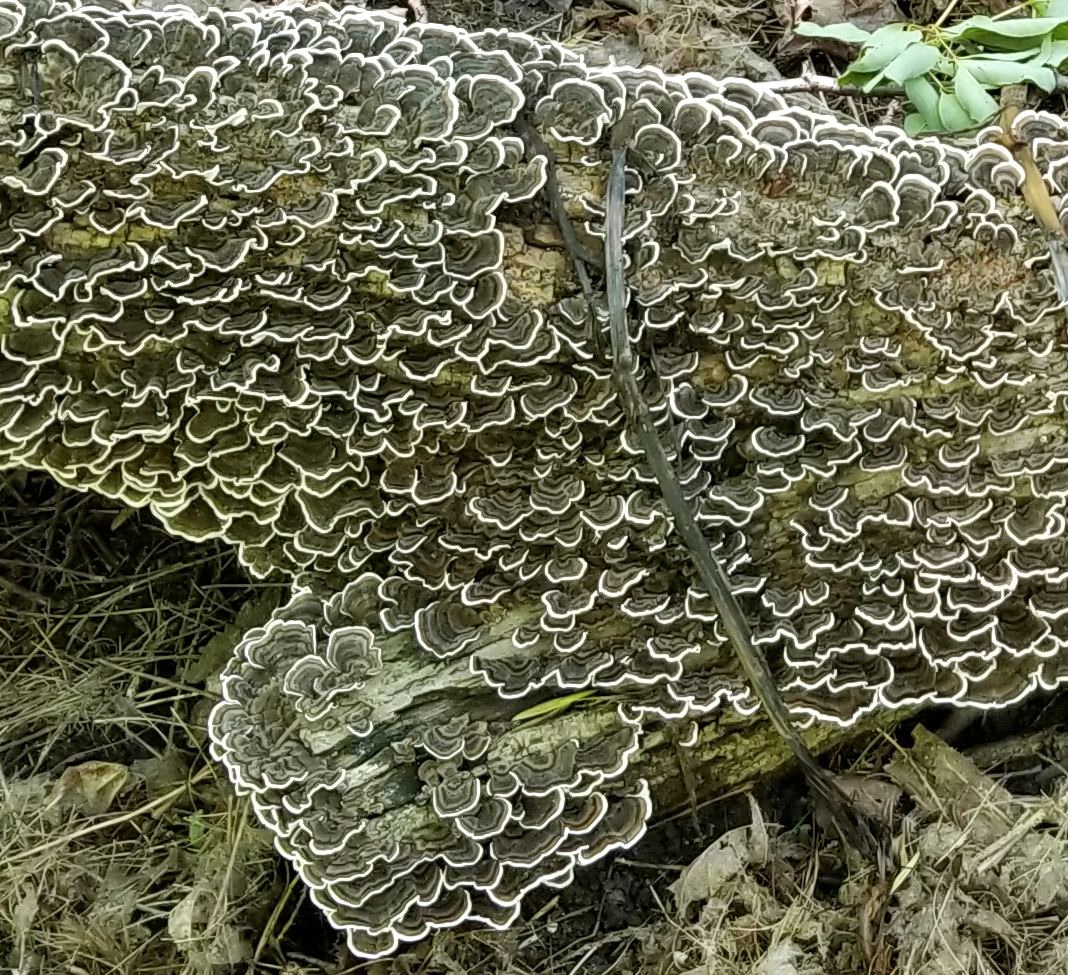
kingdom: Fungi
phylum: Basidiomycota
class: Agaricomycetes
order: Polyporales
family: Polyporaceae
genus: Trametes
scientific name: Trametes versicolor
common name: Turkeytail
